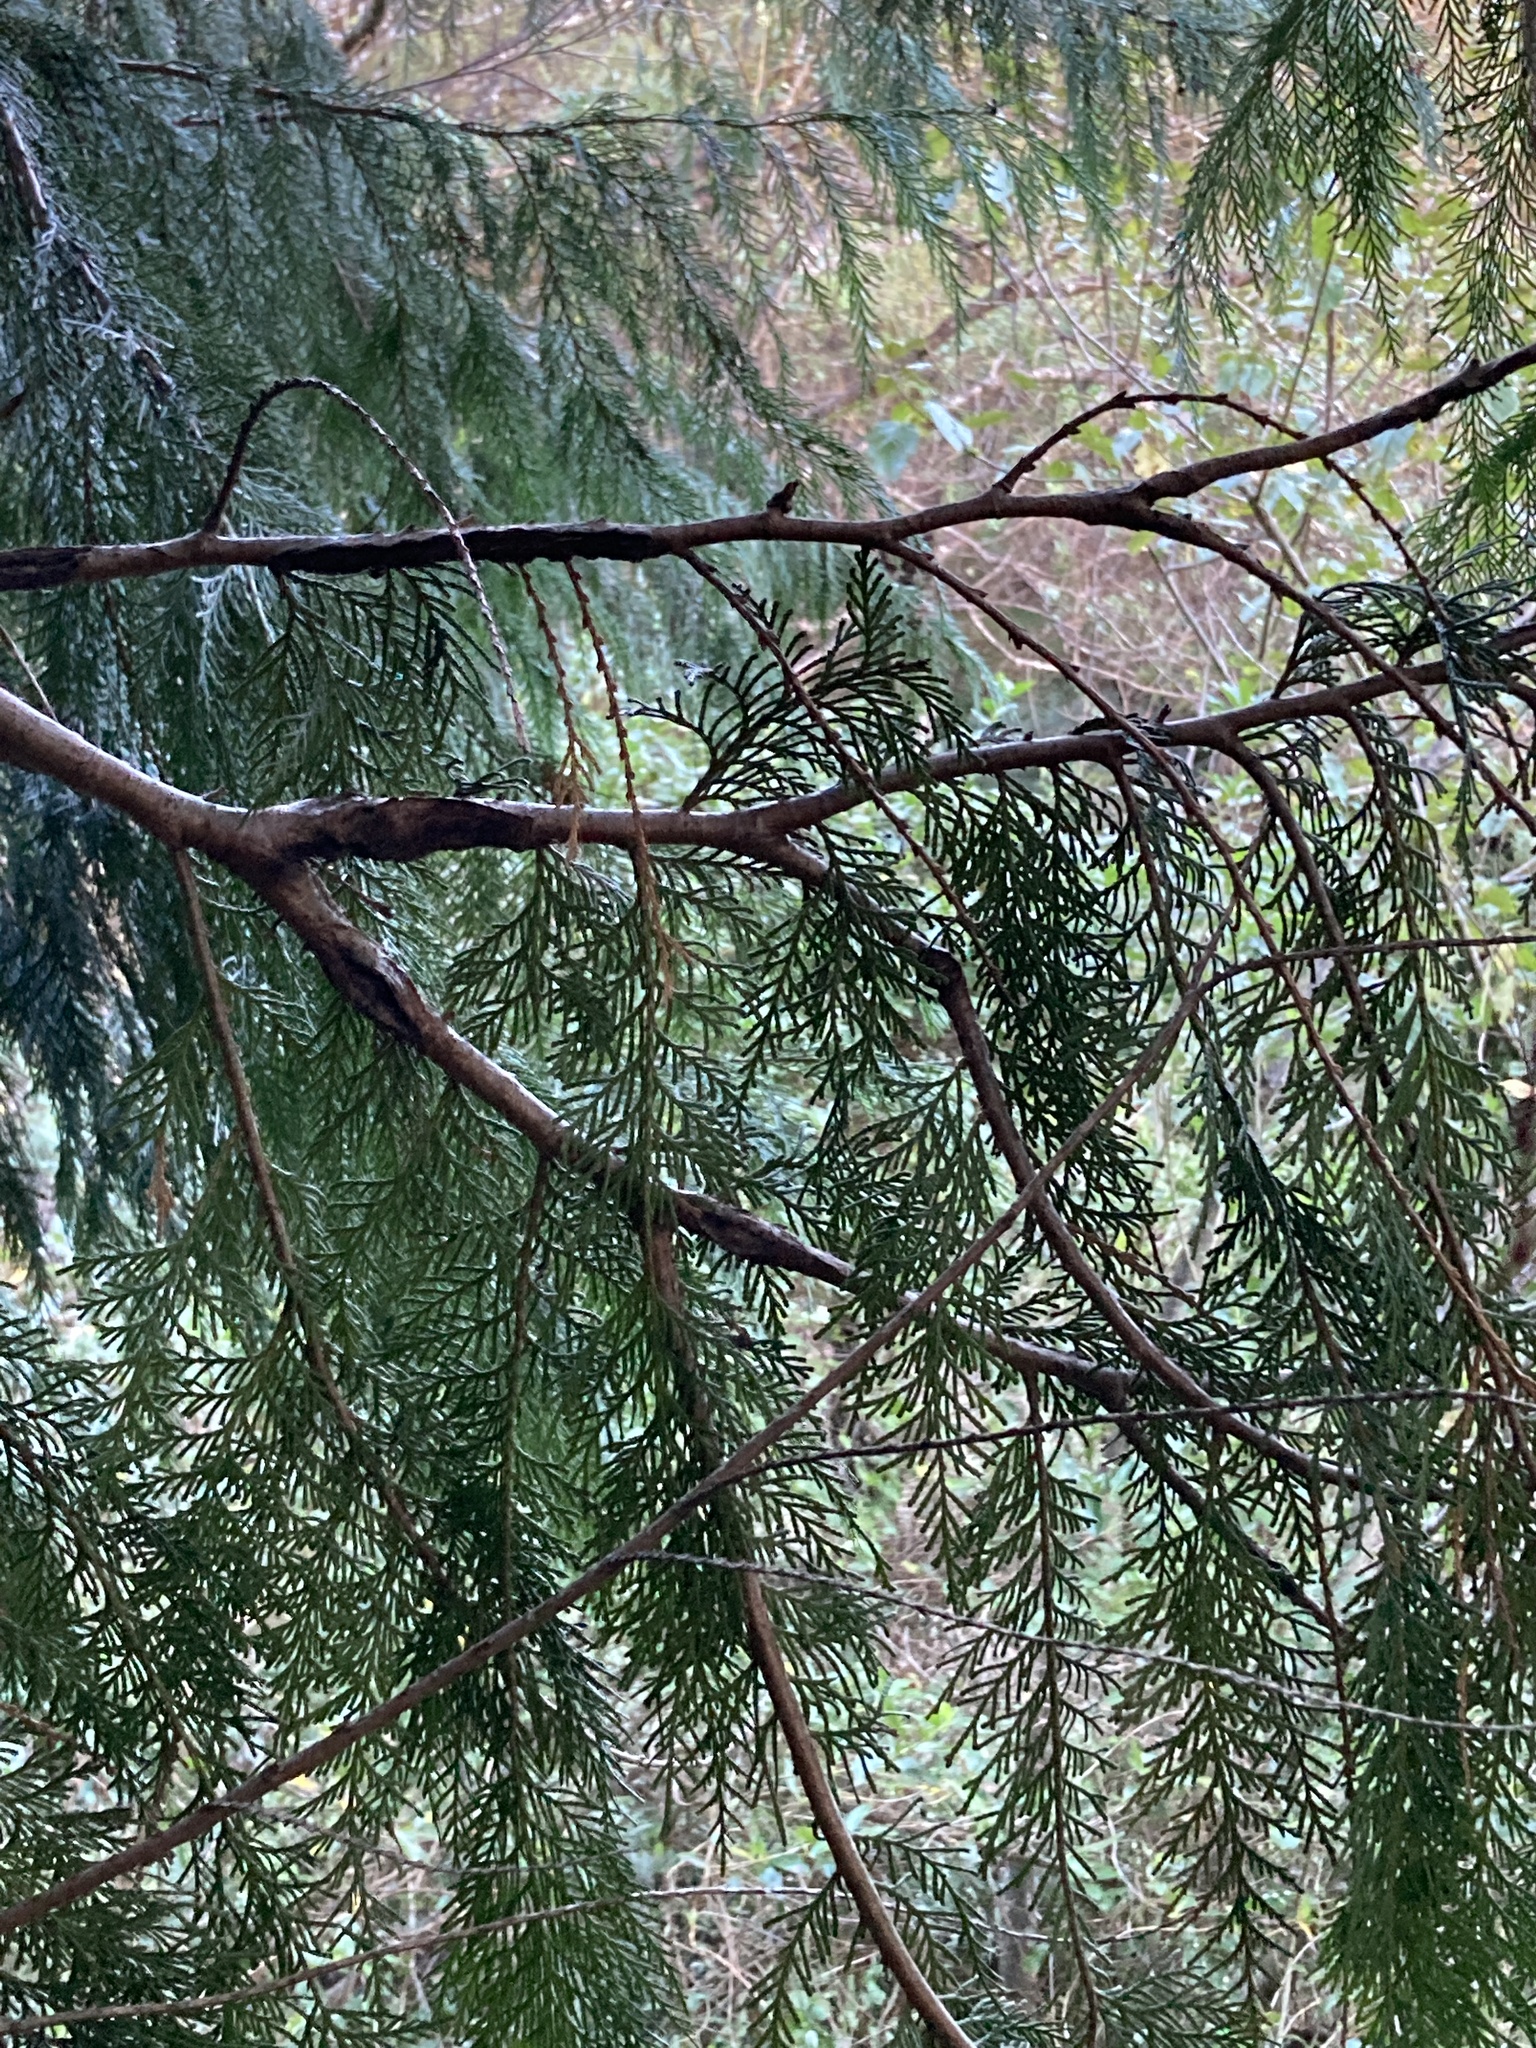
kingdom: Plantae
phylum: Tracheophyta
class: Pinopsida
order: Pinales
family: Cupressaceae
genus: Chamaecyparis
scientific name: Chamaecyparis lawsoniana
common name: Lawson's cypress
